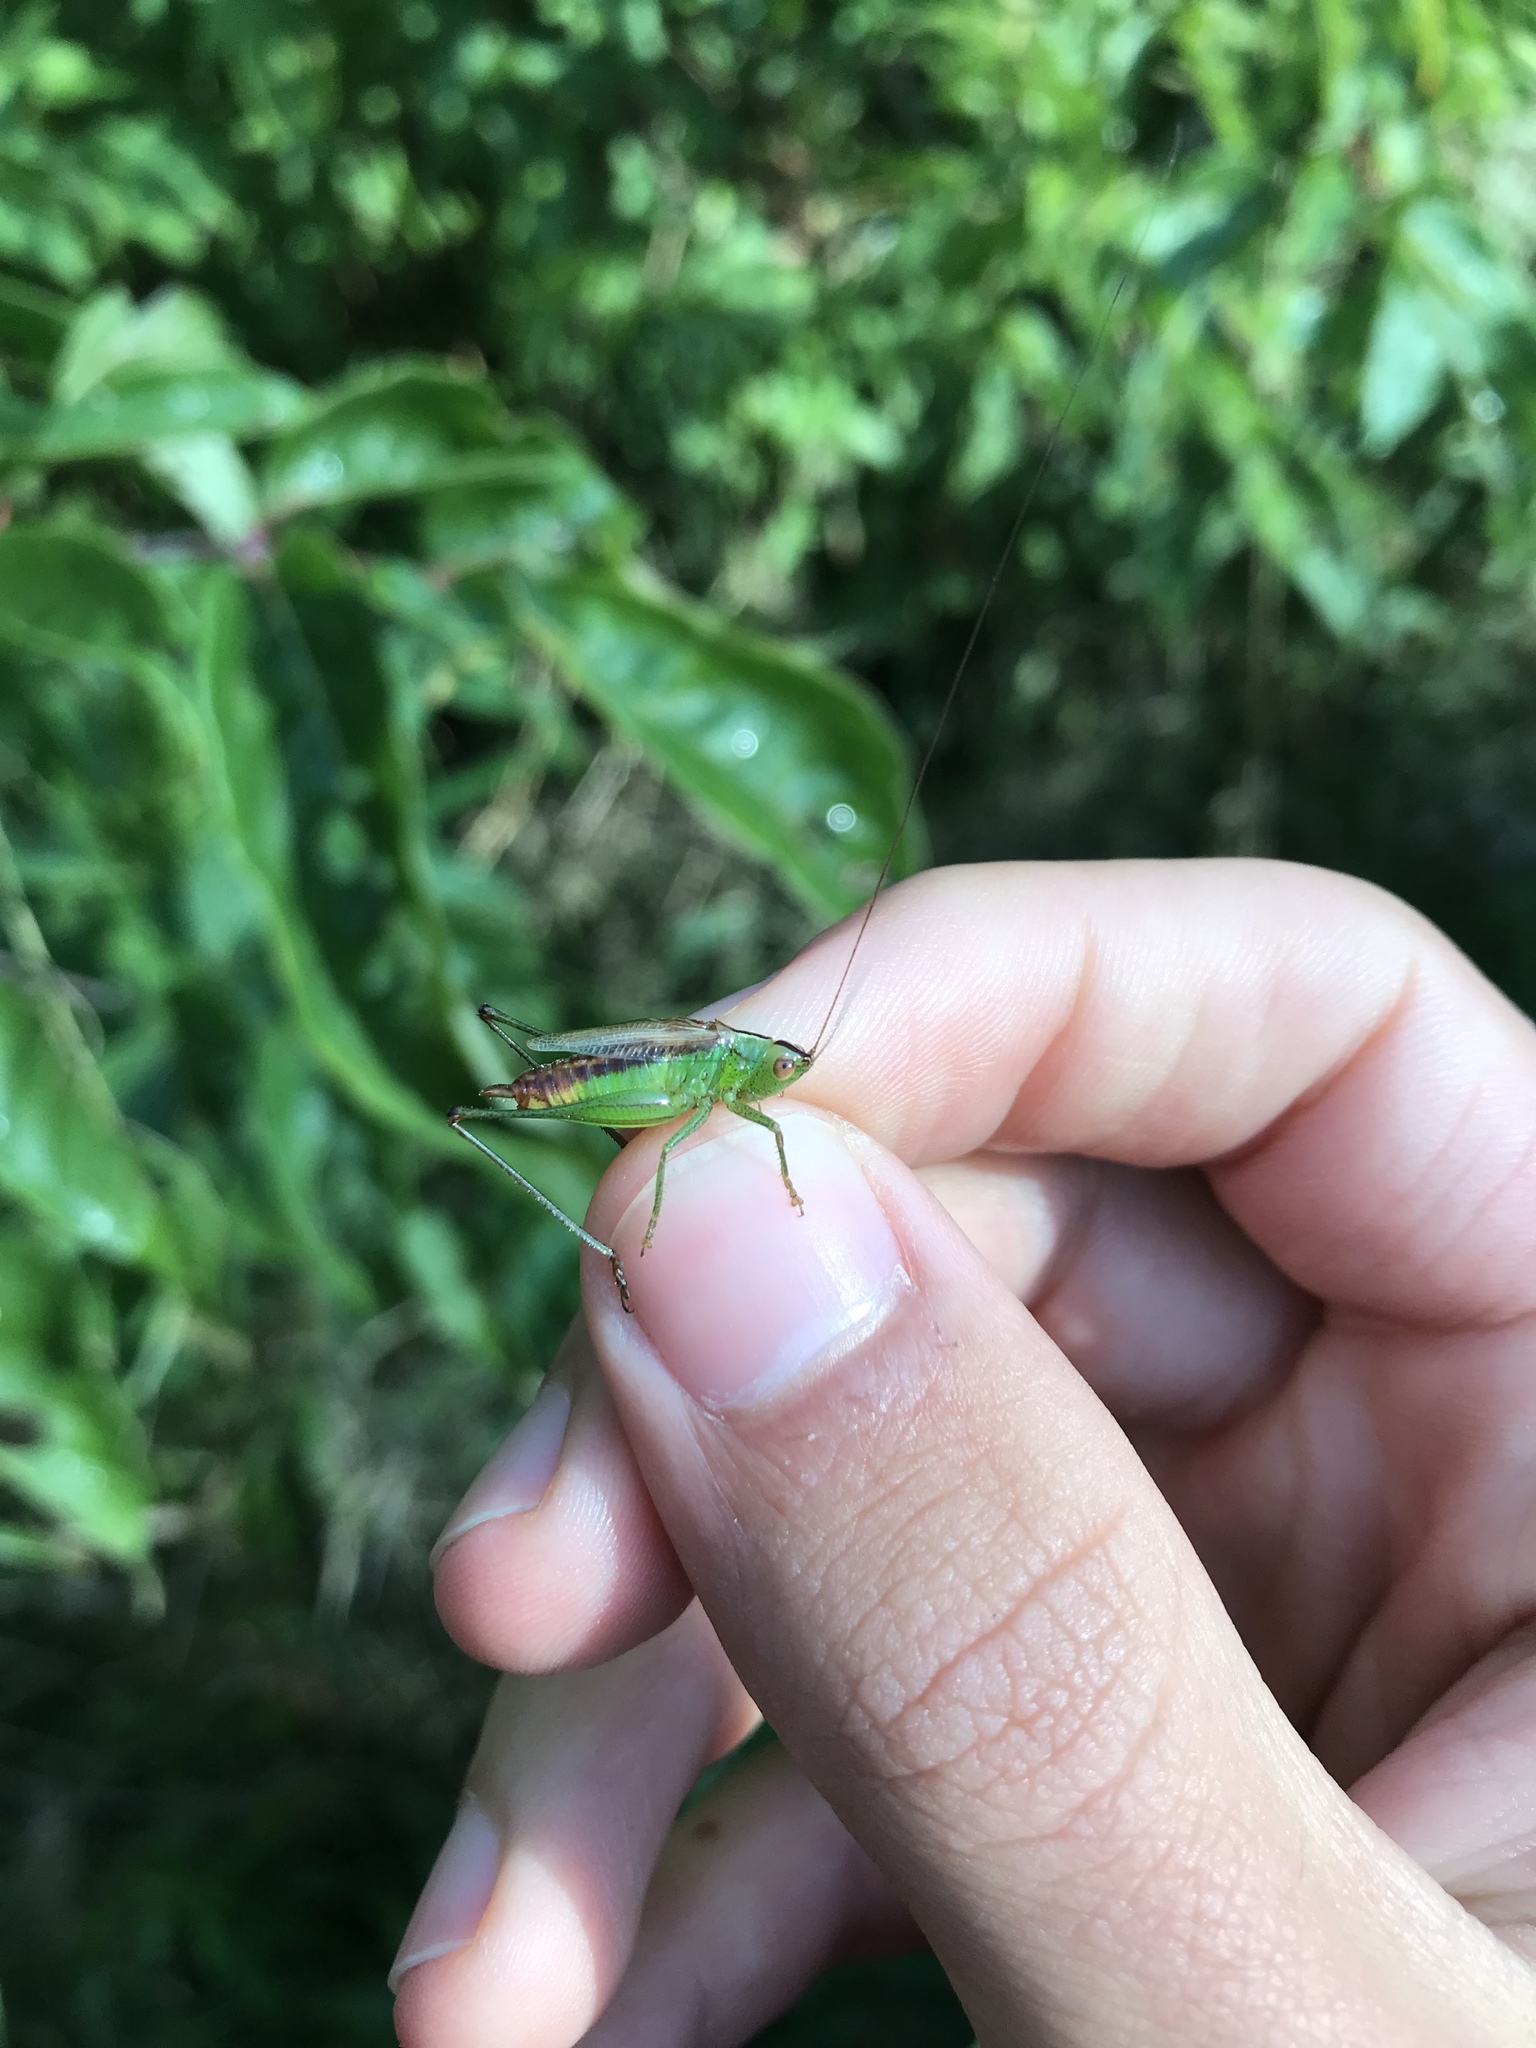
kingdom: Animalia
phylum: Arthropoda
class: Insecta
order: Orthoptera
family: Tettigoniidae
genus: Conocephalus
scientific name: Conocephalus brevipennis
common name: Short-winged meadow katydid
